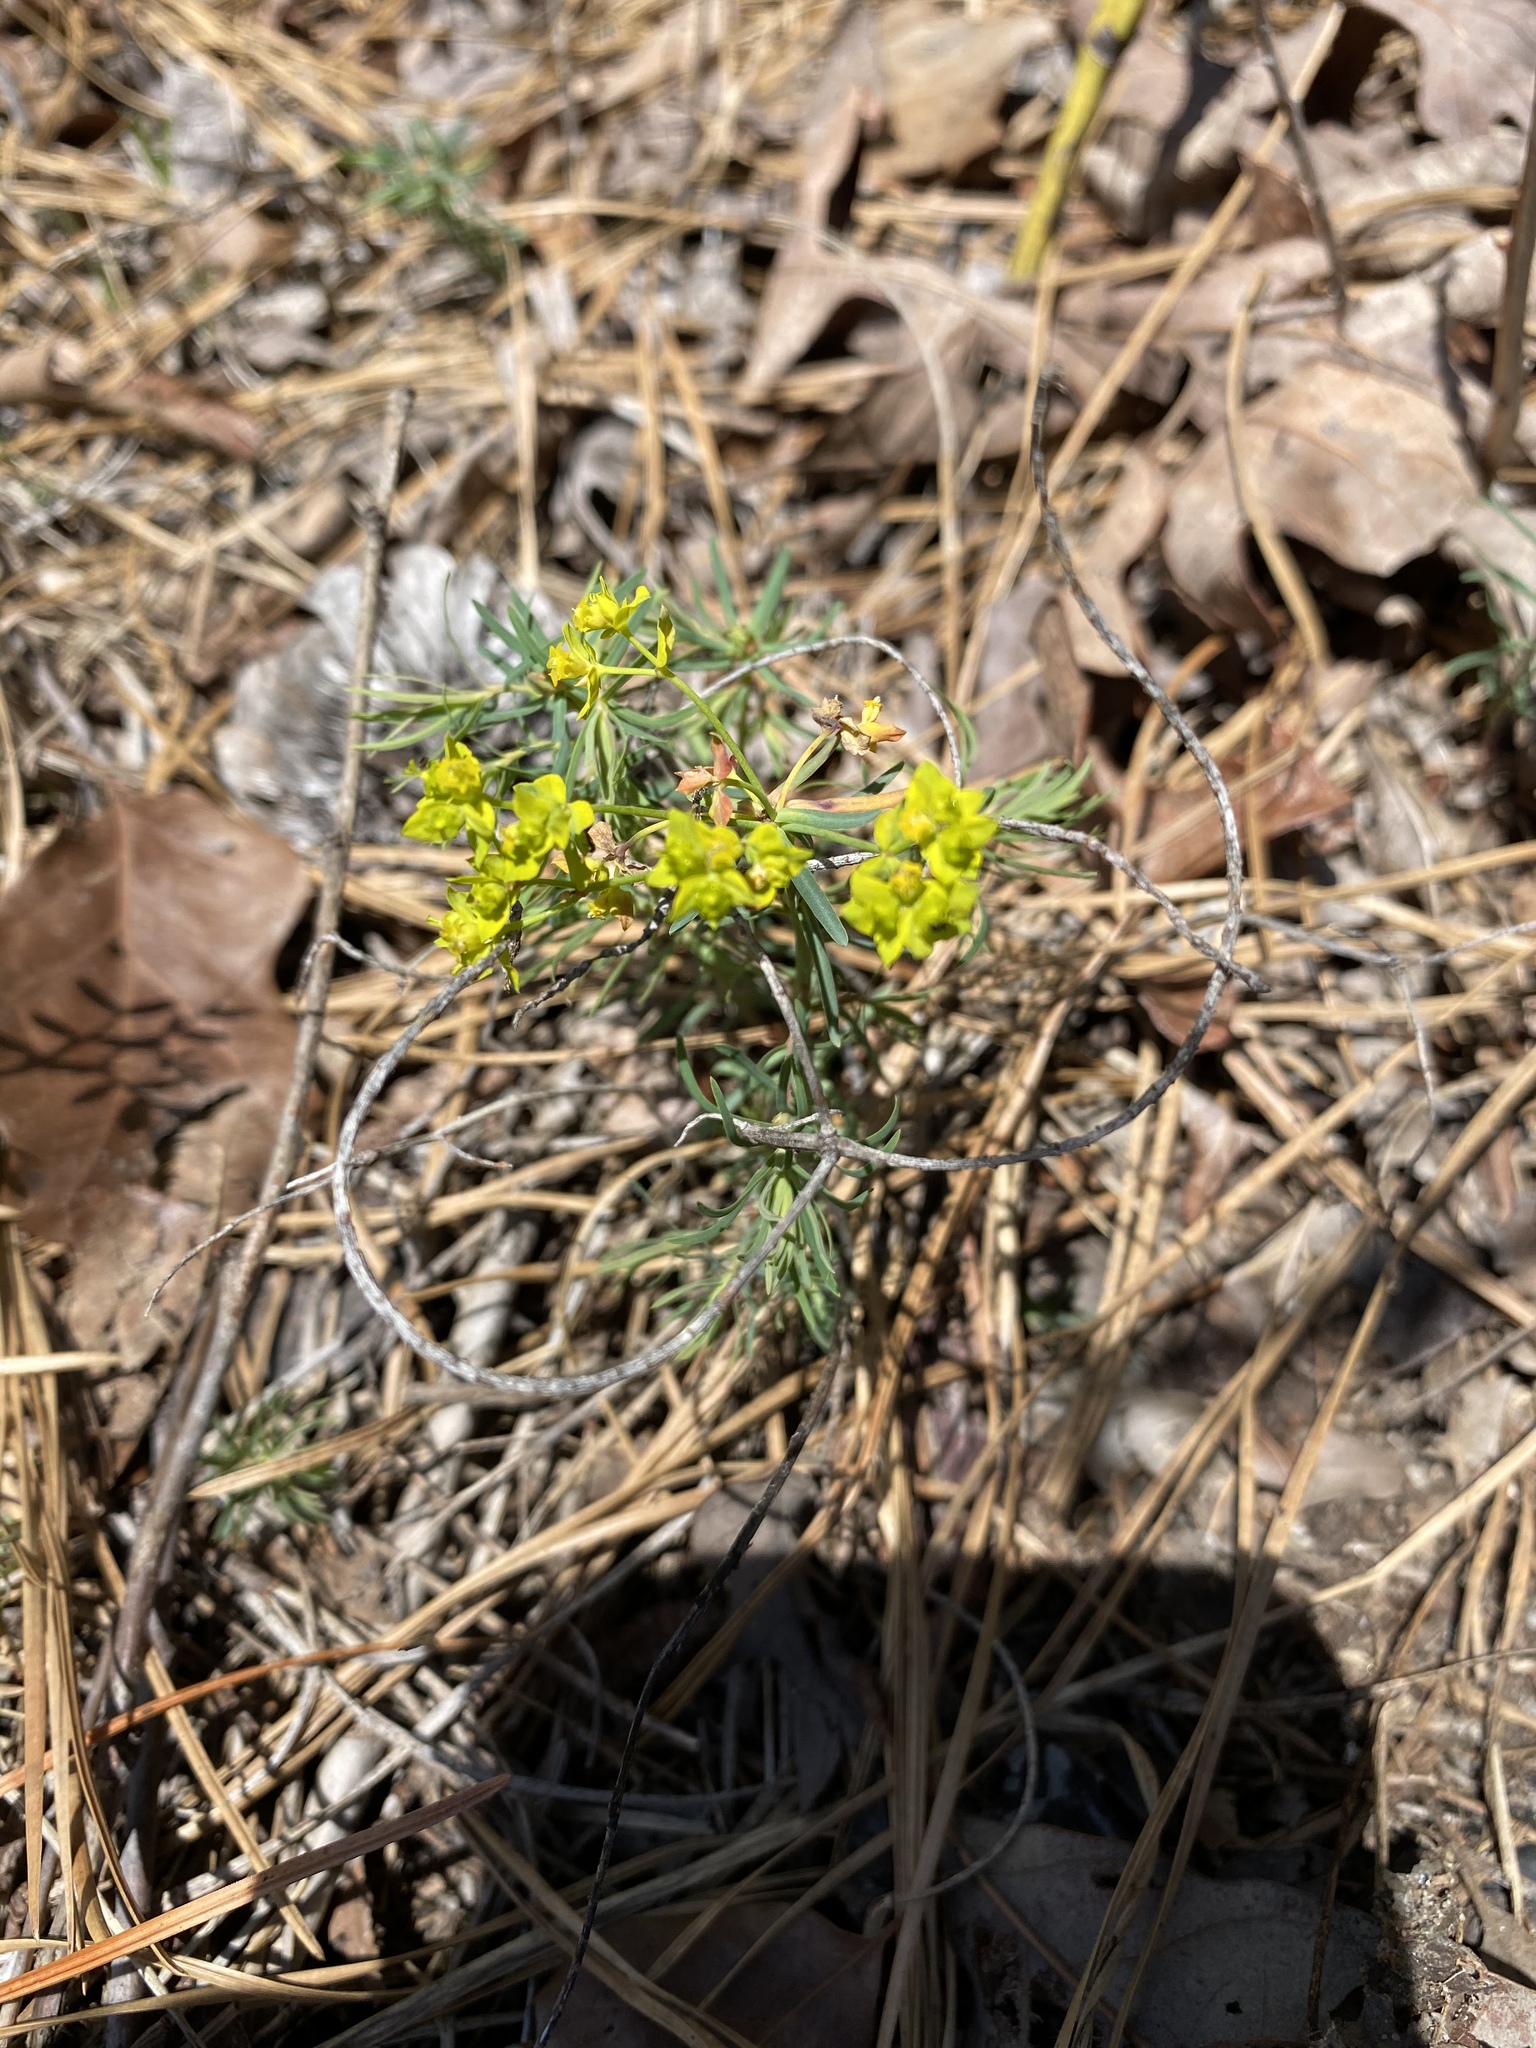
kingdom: Plantae
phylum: Tracheophyta
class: Magnoliopsida
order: Malpighiales
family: Euphorbiaceae
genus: Euphorbia
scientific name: Euphorbia cyparissias
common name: Cypress spurge
